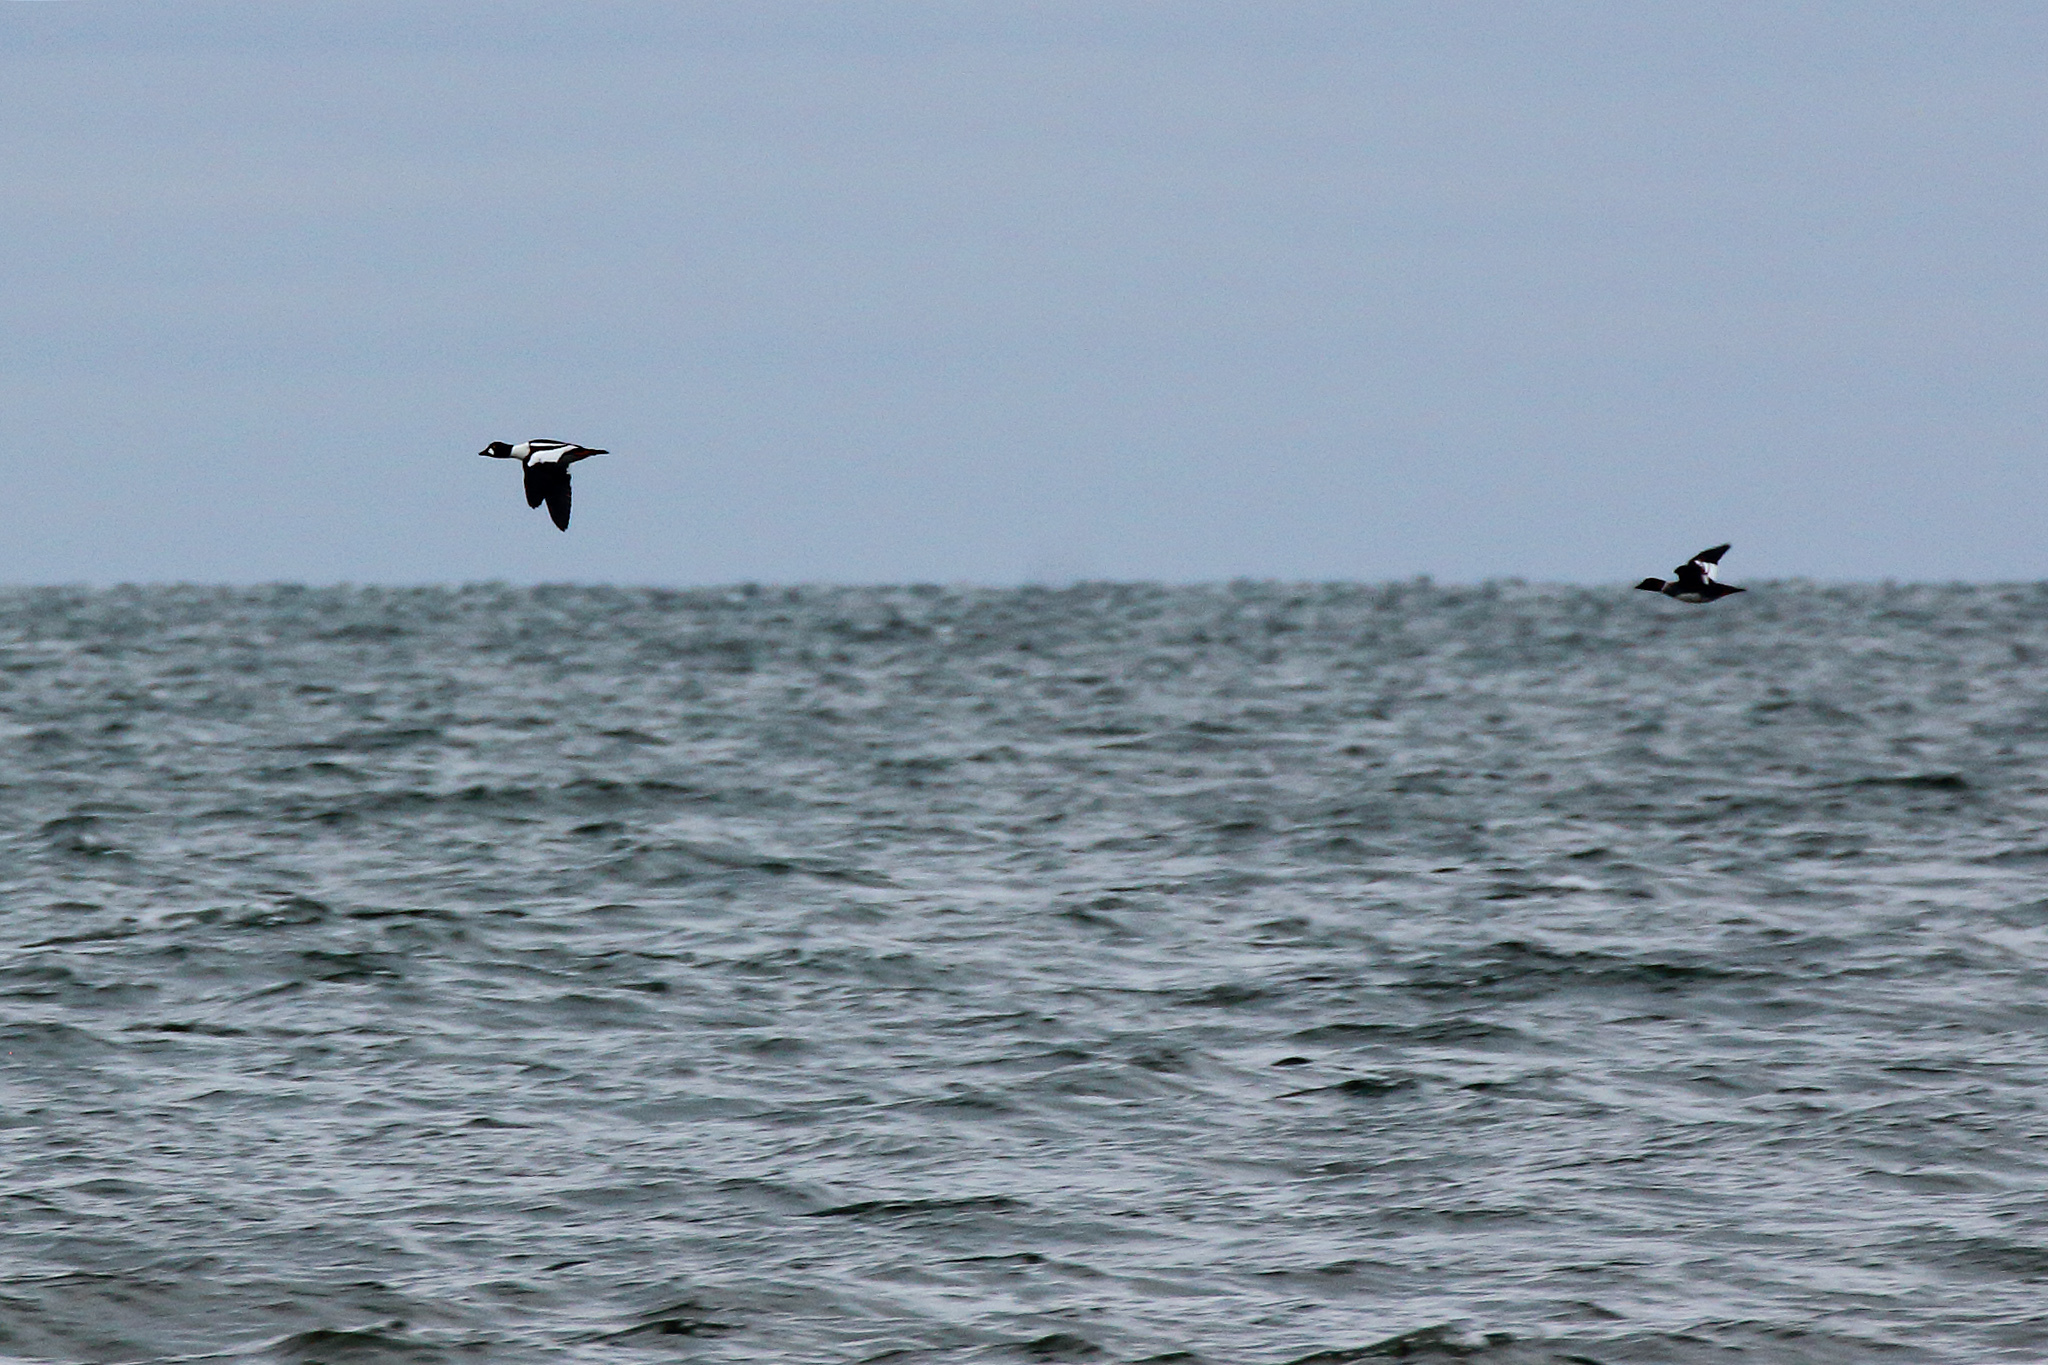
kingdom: Animalia
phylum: Chordata
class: Aves
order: Anseriformes
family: Anatidae
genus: Bucephala
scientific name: Bucephala clangula
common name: Common goldeneye
